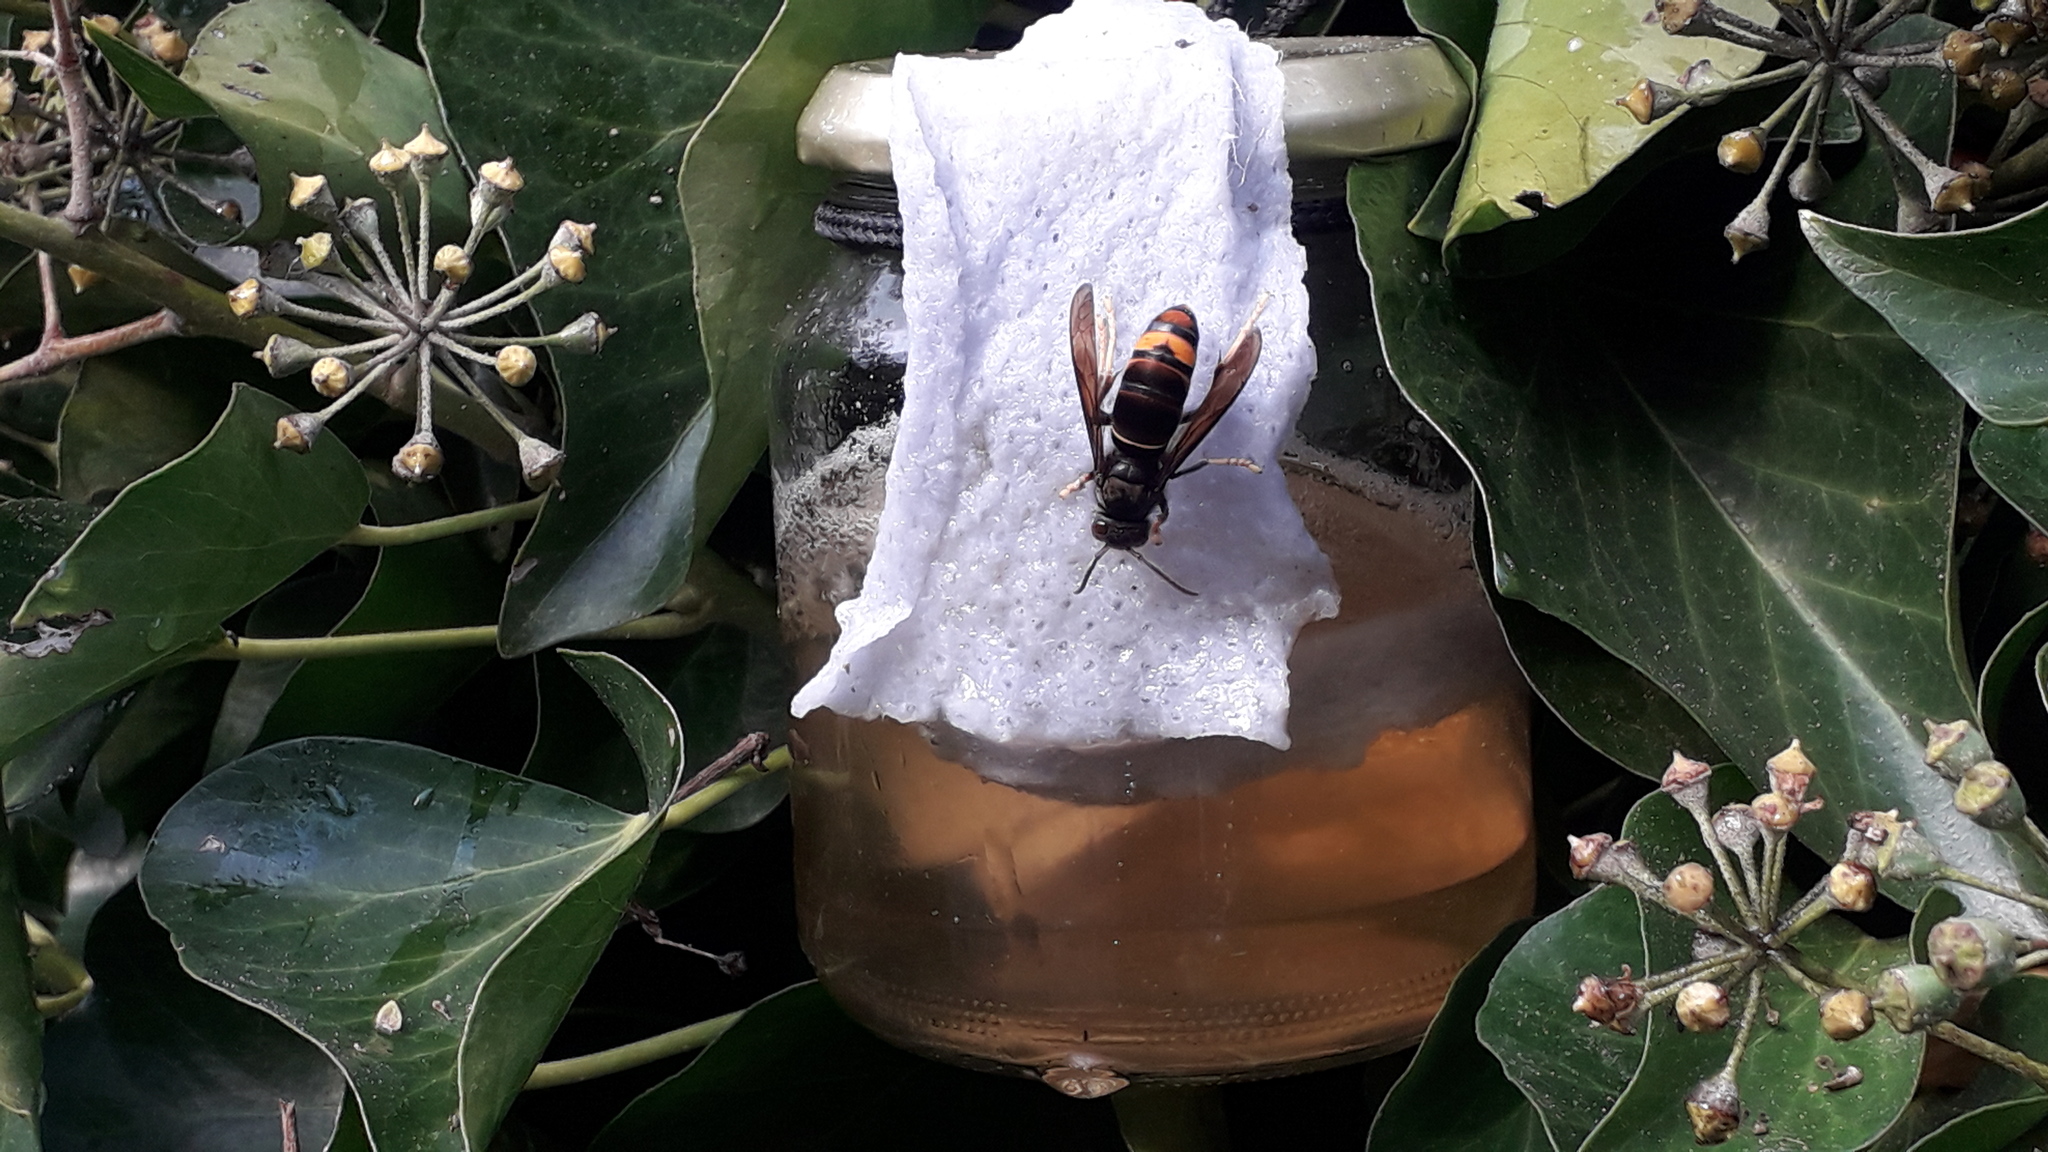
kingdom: Animalia
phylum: Arthropoda
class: Insecta
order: Hymenoptera
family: Vespidae
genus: Vespa
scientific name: Vespa velutina
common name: Asian hornet
